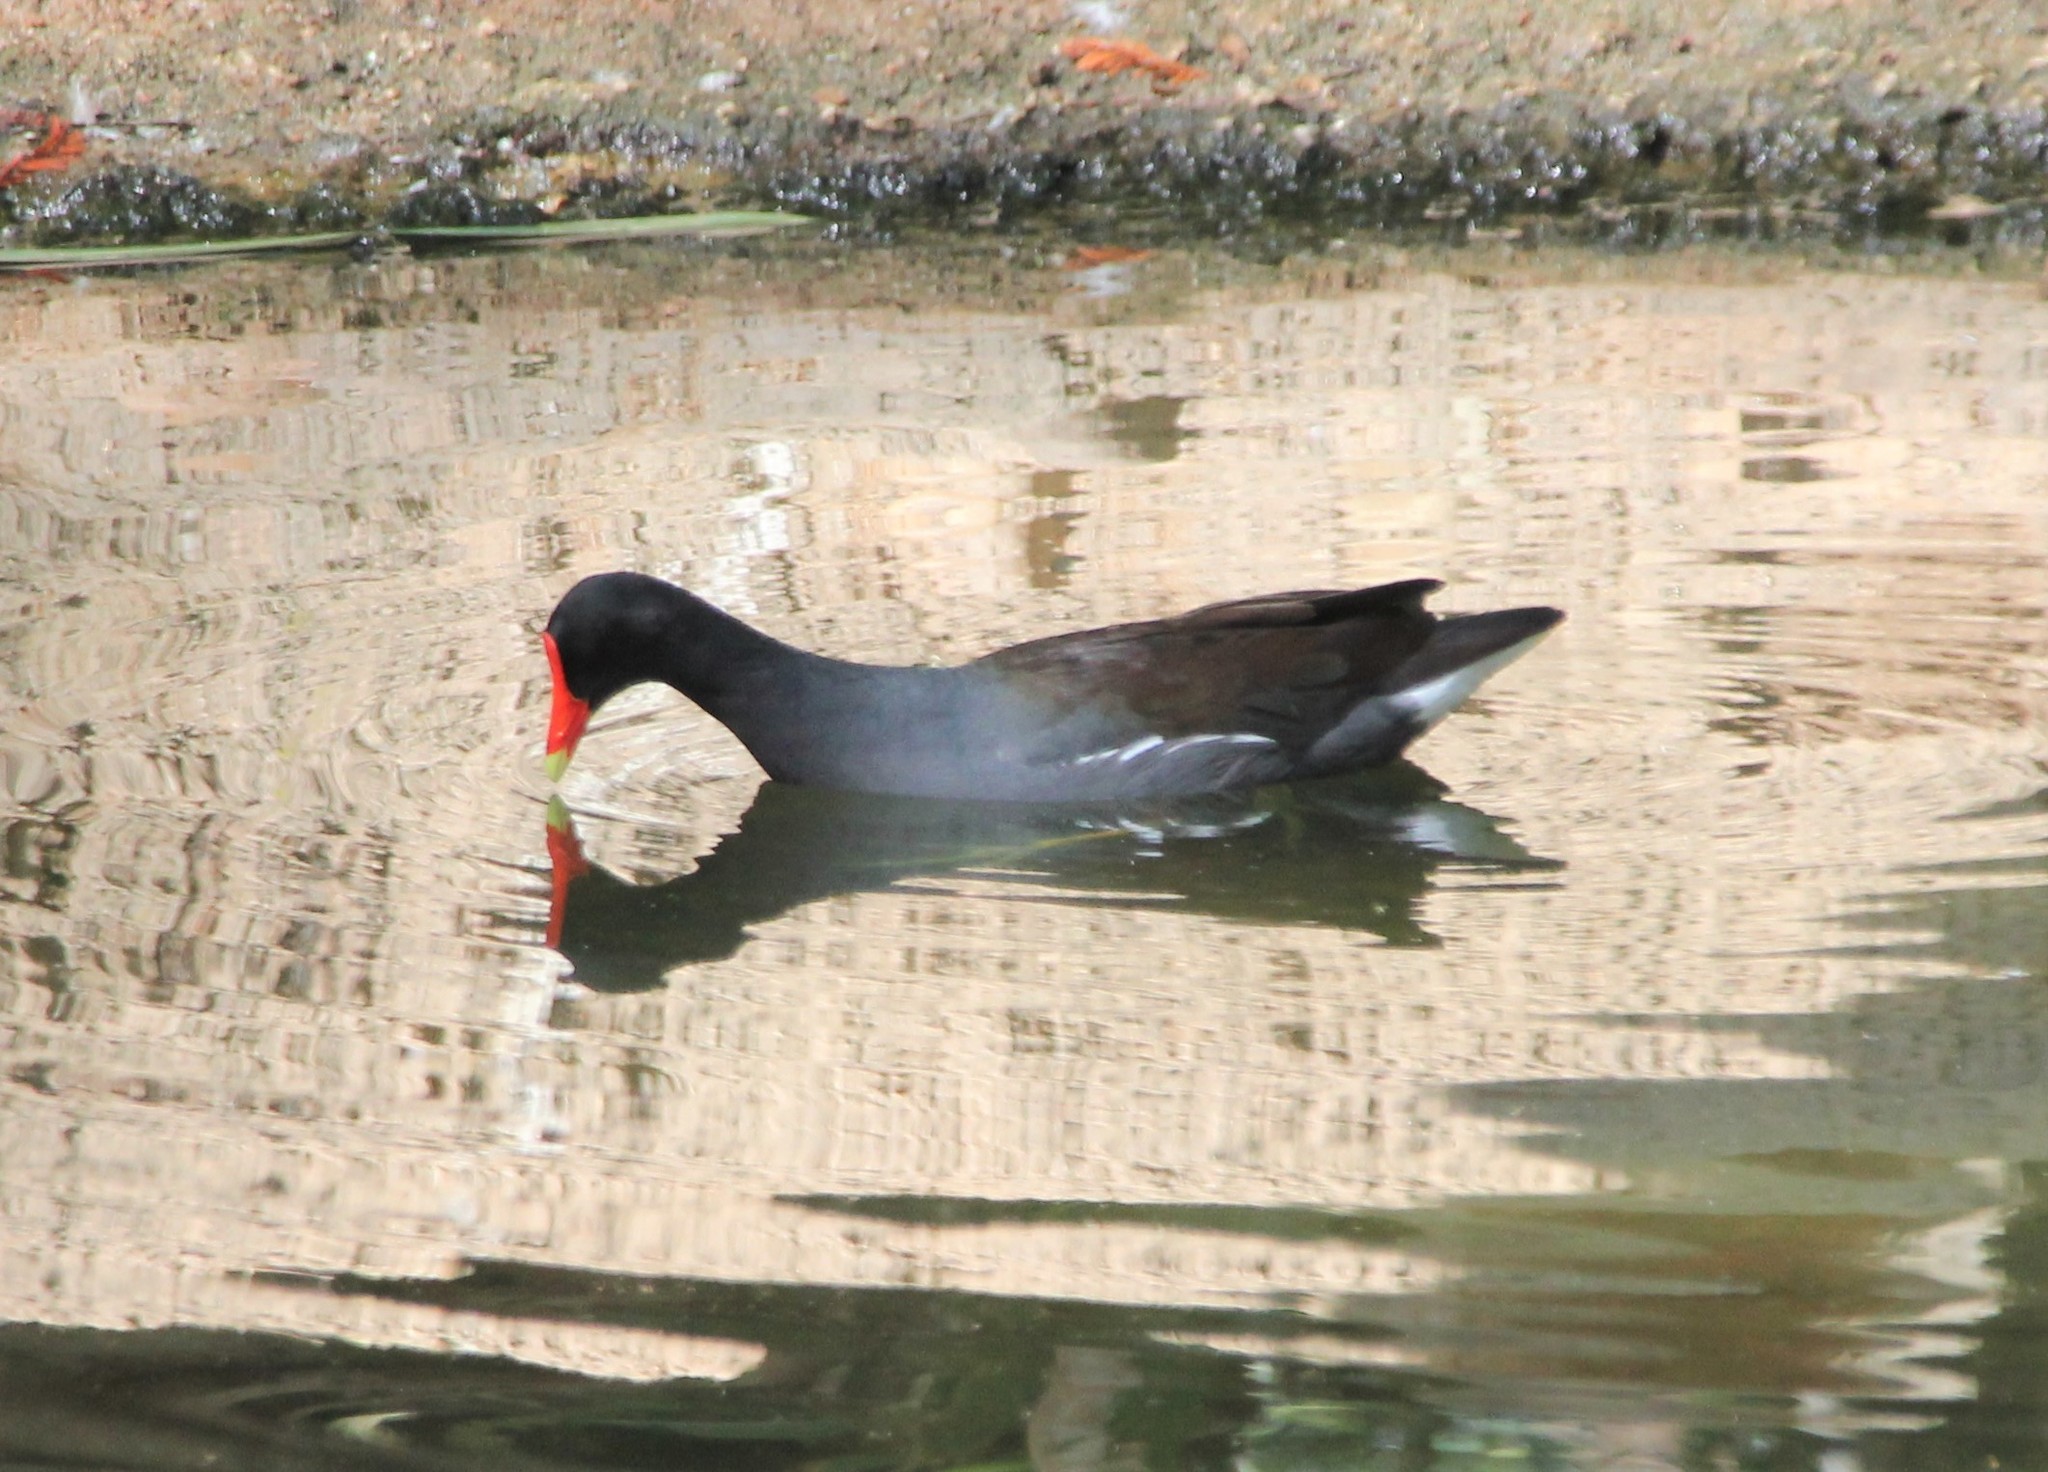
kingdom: Animalia
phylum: Chordata
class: Aves
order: Gruiformes
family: Rallidae
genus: Gallinula
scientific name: Gallinula chloropus
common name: Common moorhen
